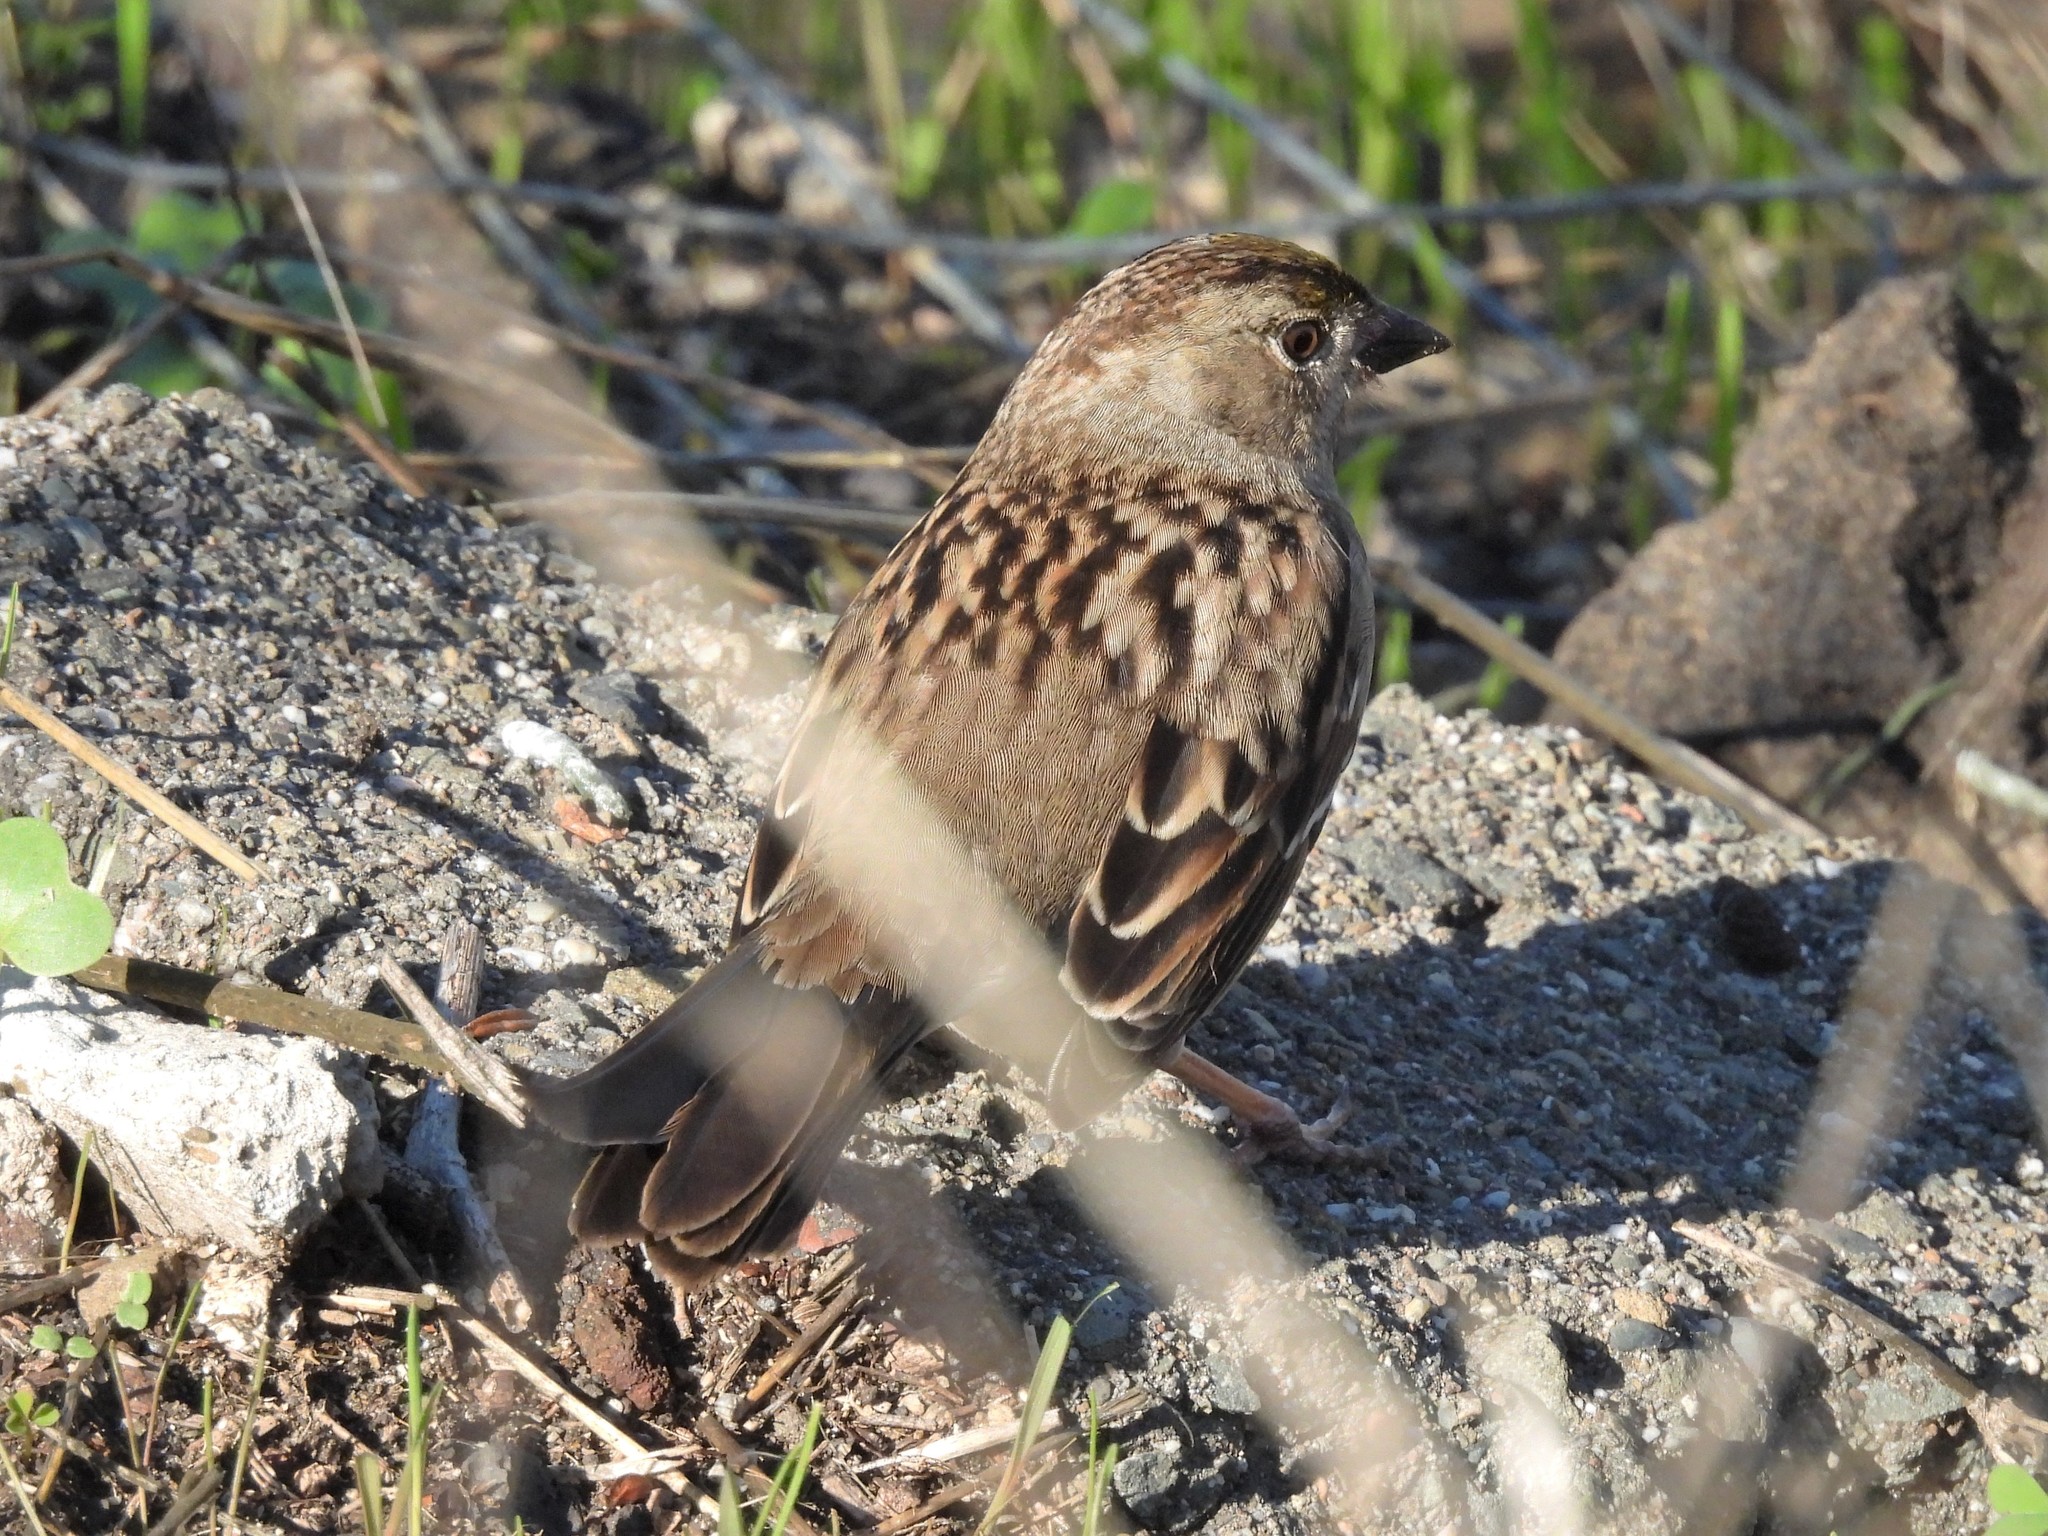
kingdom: Animalia
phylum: Chordata
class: Aves
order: Passeriformes
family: Passerellidae
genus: Zonotrichia
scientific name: Zonotrichia atricapilla
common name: Golden-crowned sparrow
